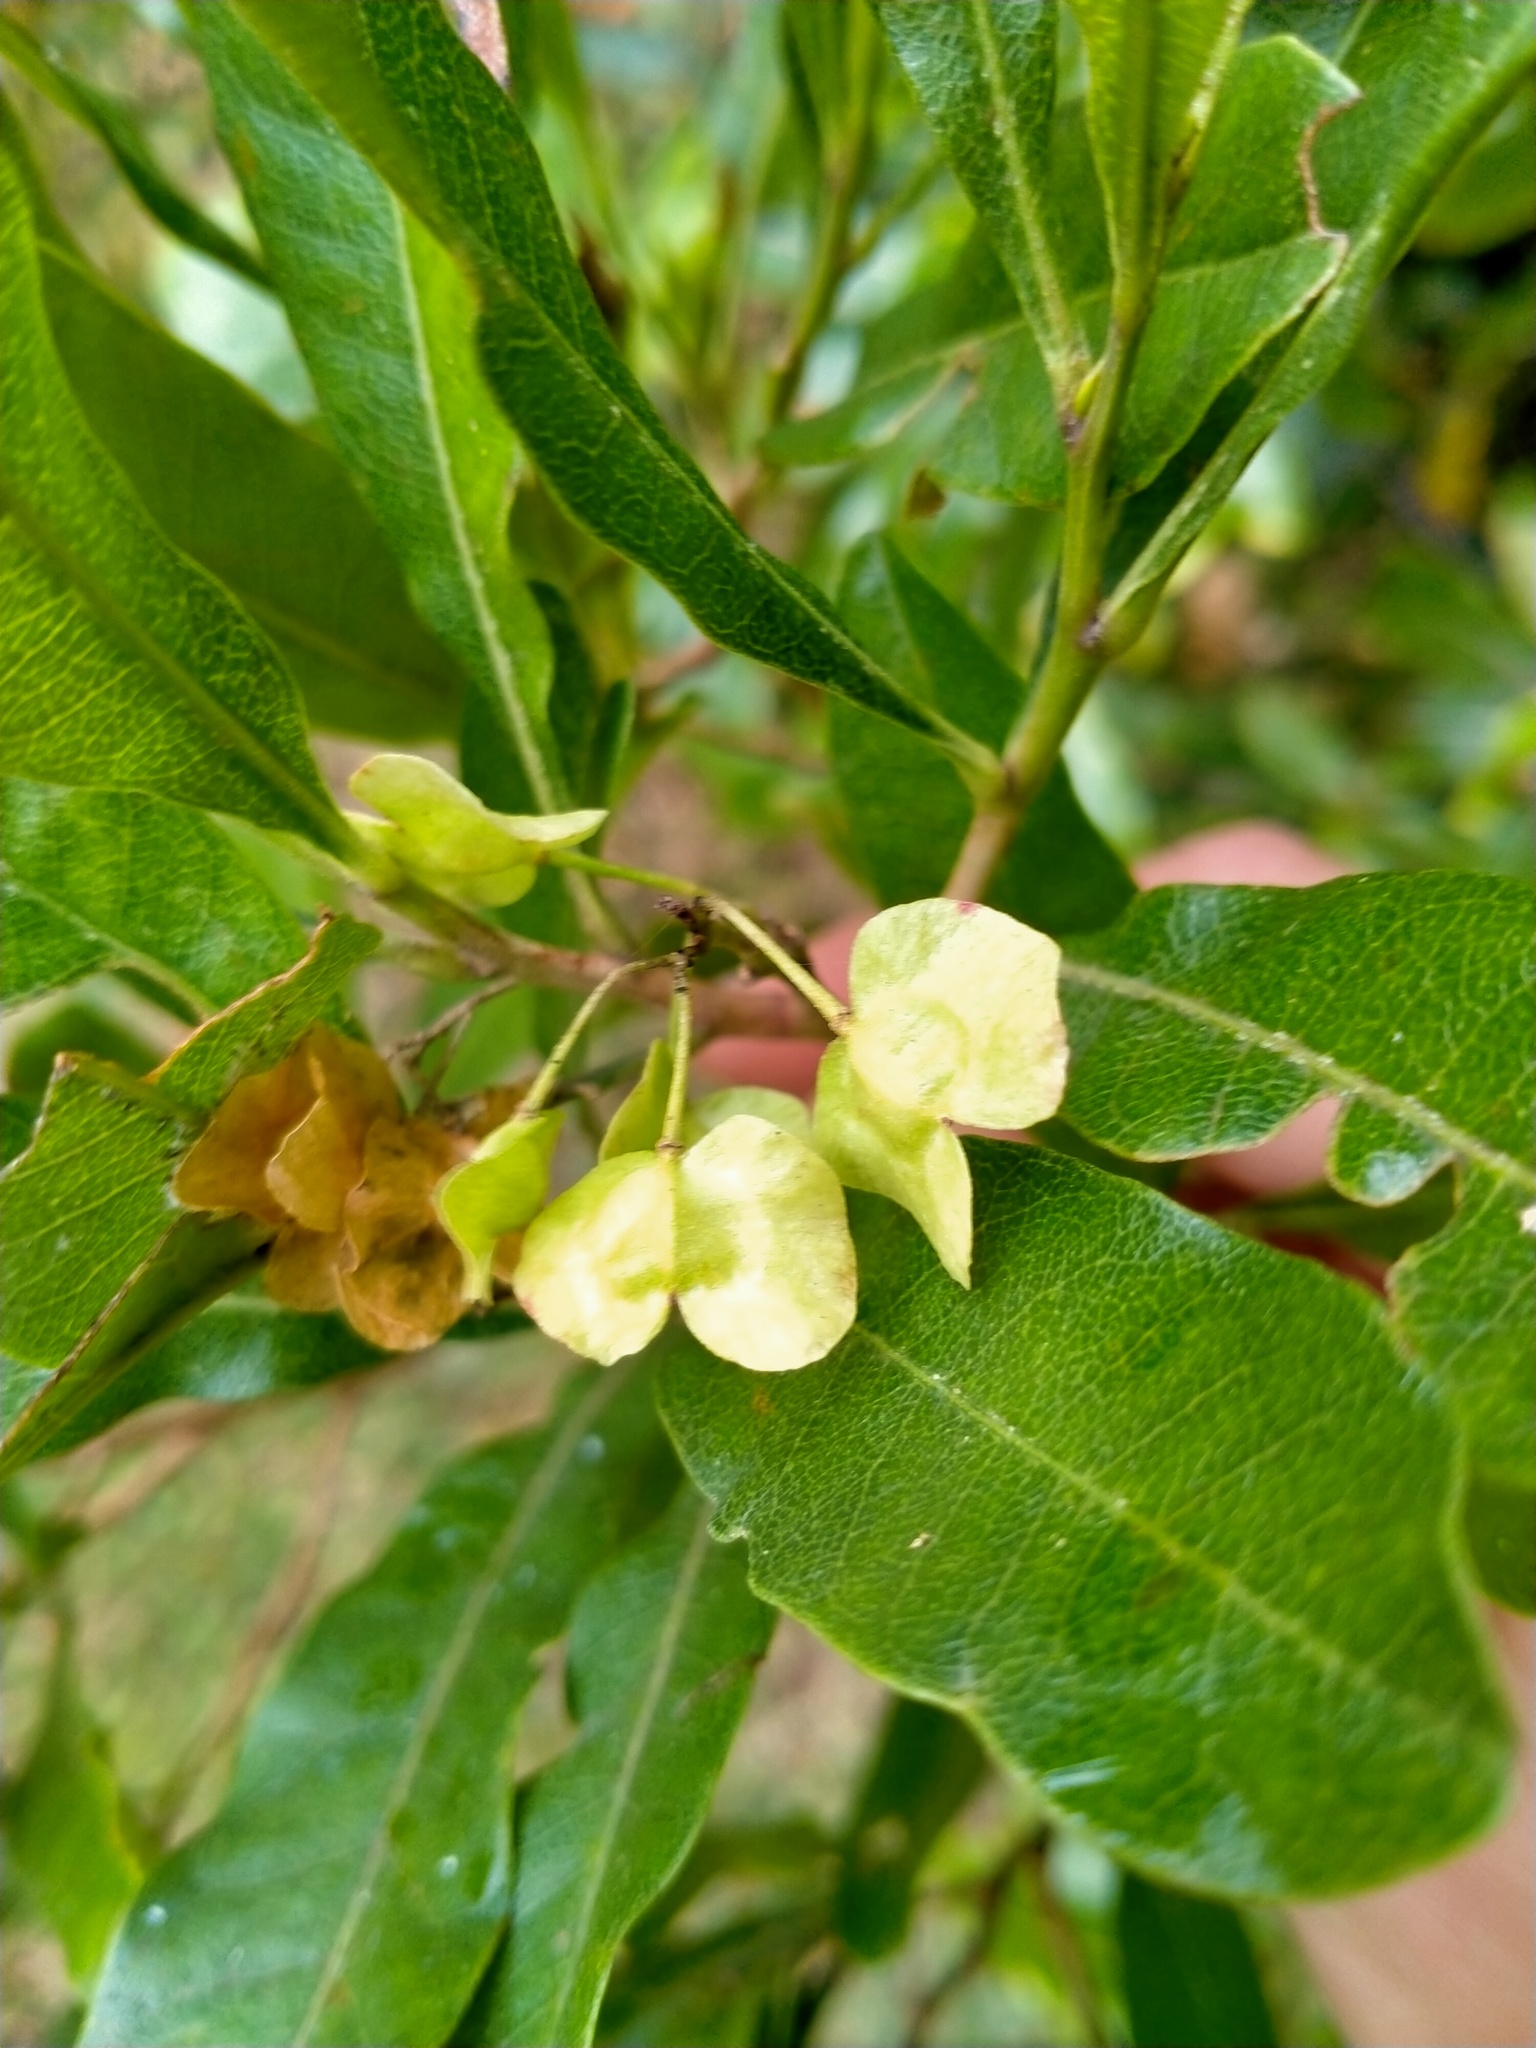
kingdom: Plantae
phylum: Tracheophyta
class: Magnoliopsida
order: Sapindales
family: Sapindaceae
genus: Dodonaea
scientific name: Dodonaea viscosa
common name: Hopbush
